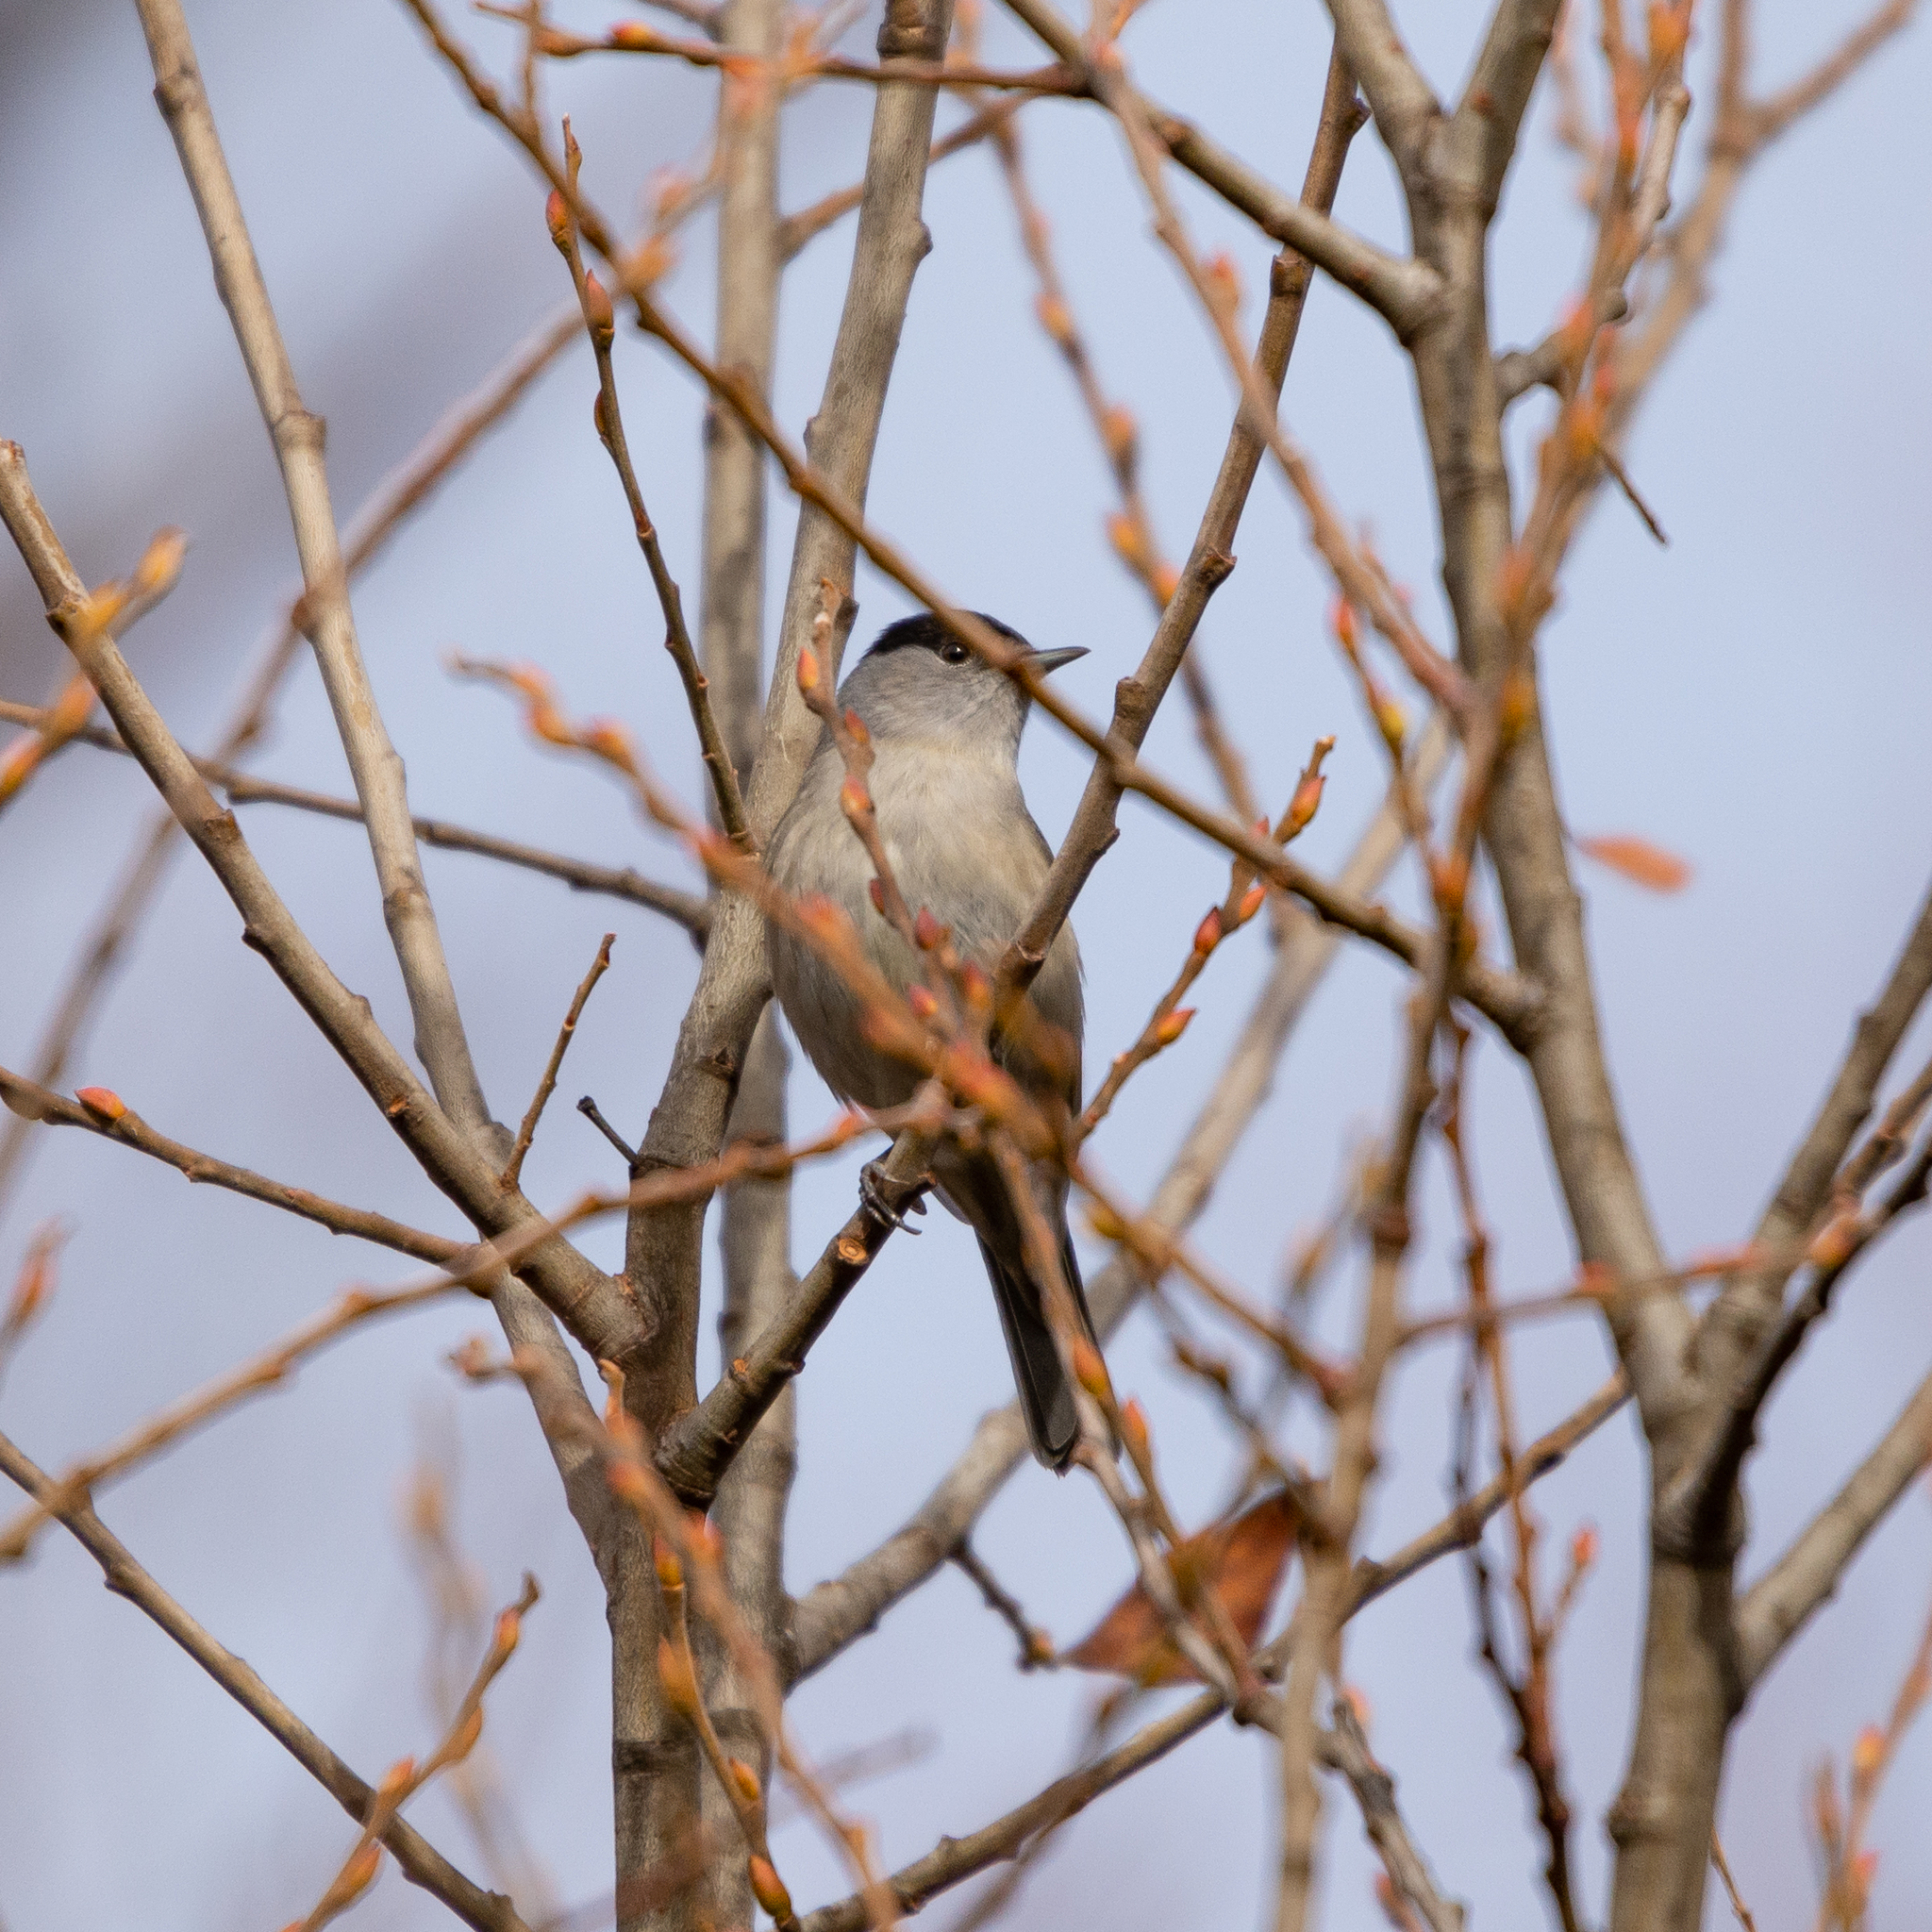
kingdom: Animalia
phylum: Chordata
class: Aves
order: Passeriformes
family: Sylviidae
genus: Sylvia
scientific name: Sylvia atricapilla
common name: Eurasian blackcap
